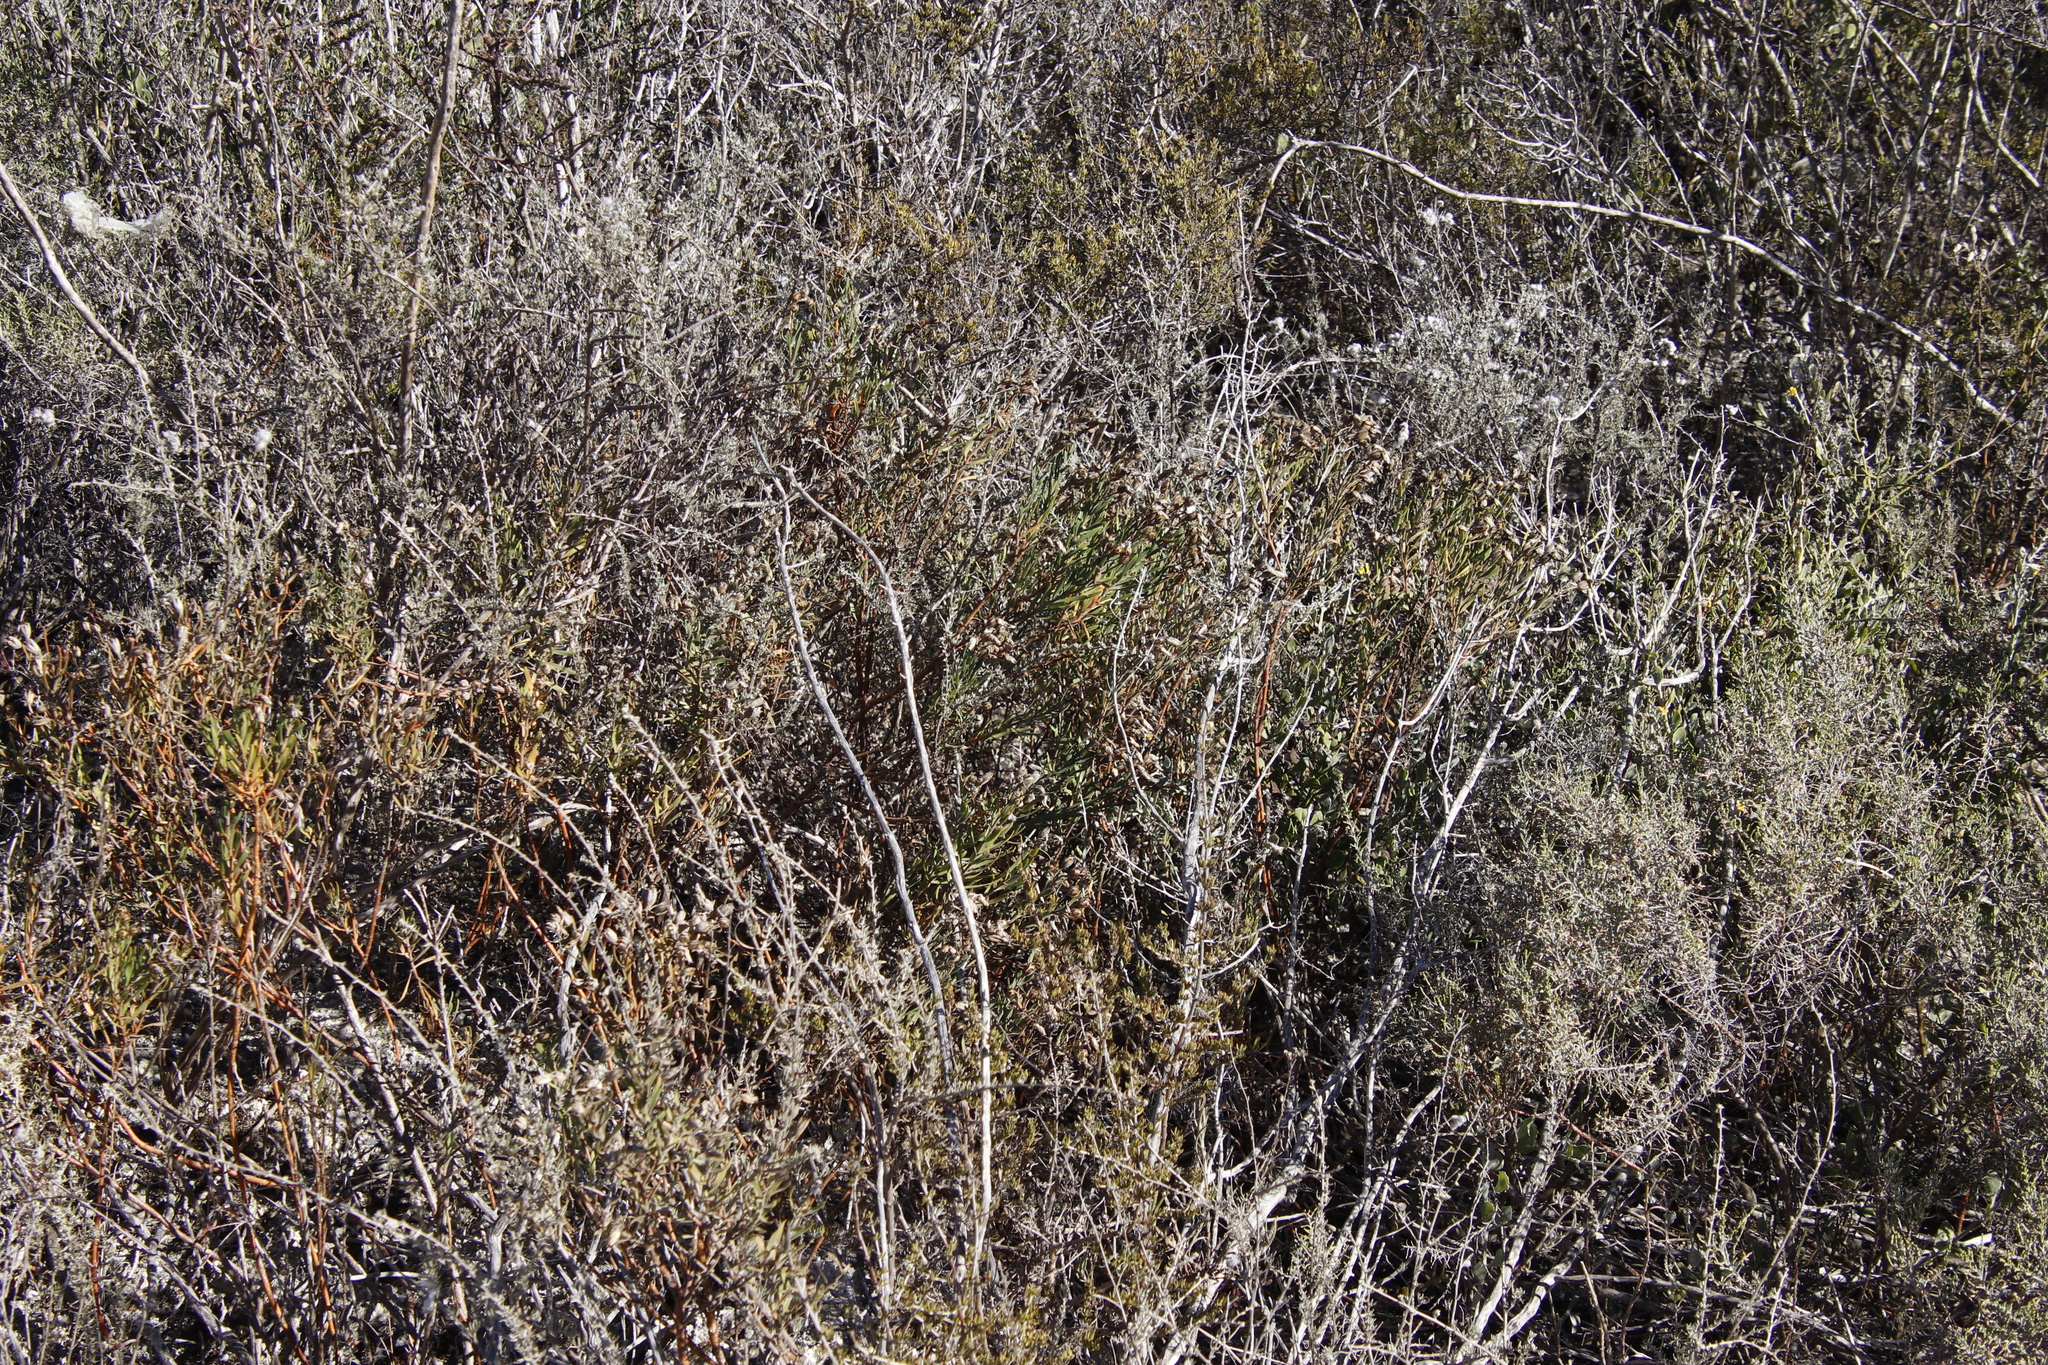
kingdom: Plantae
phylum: Tracheophyta
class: Magnoliopsida
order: Gentianales
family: Gentianaceae
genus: Orphium
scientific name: Orphium frutescens
